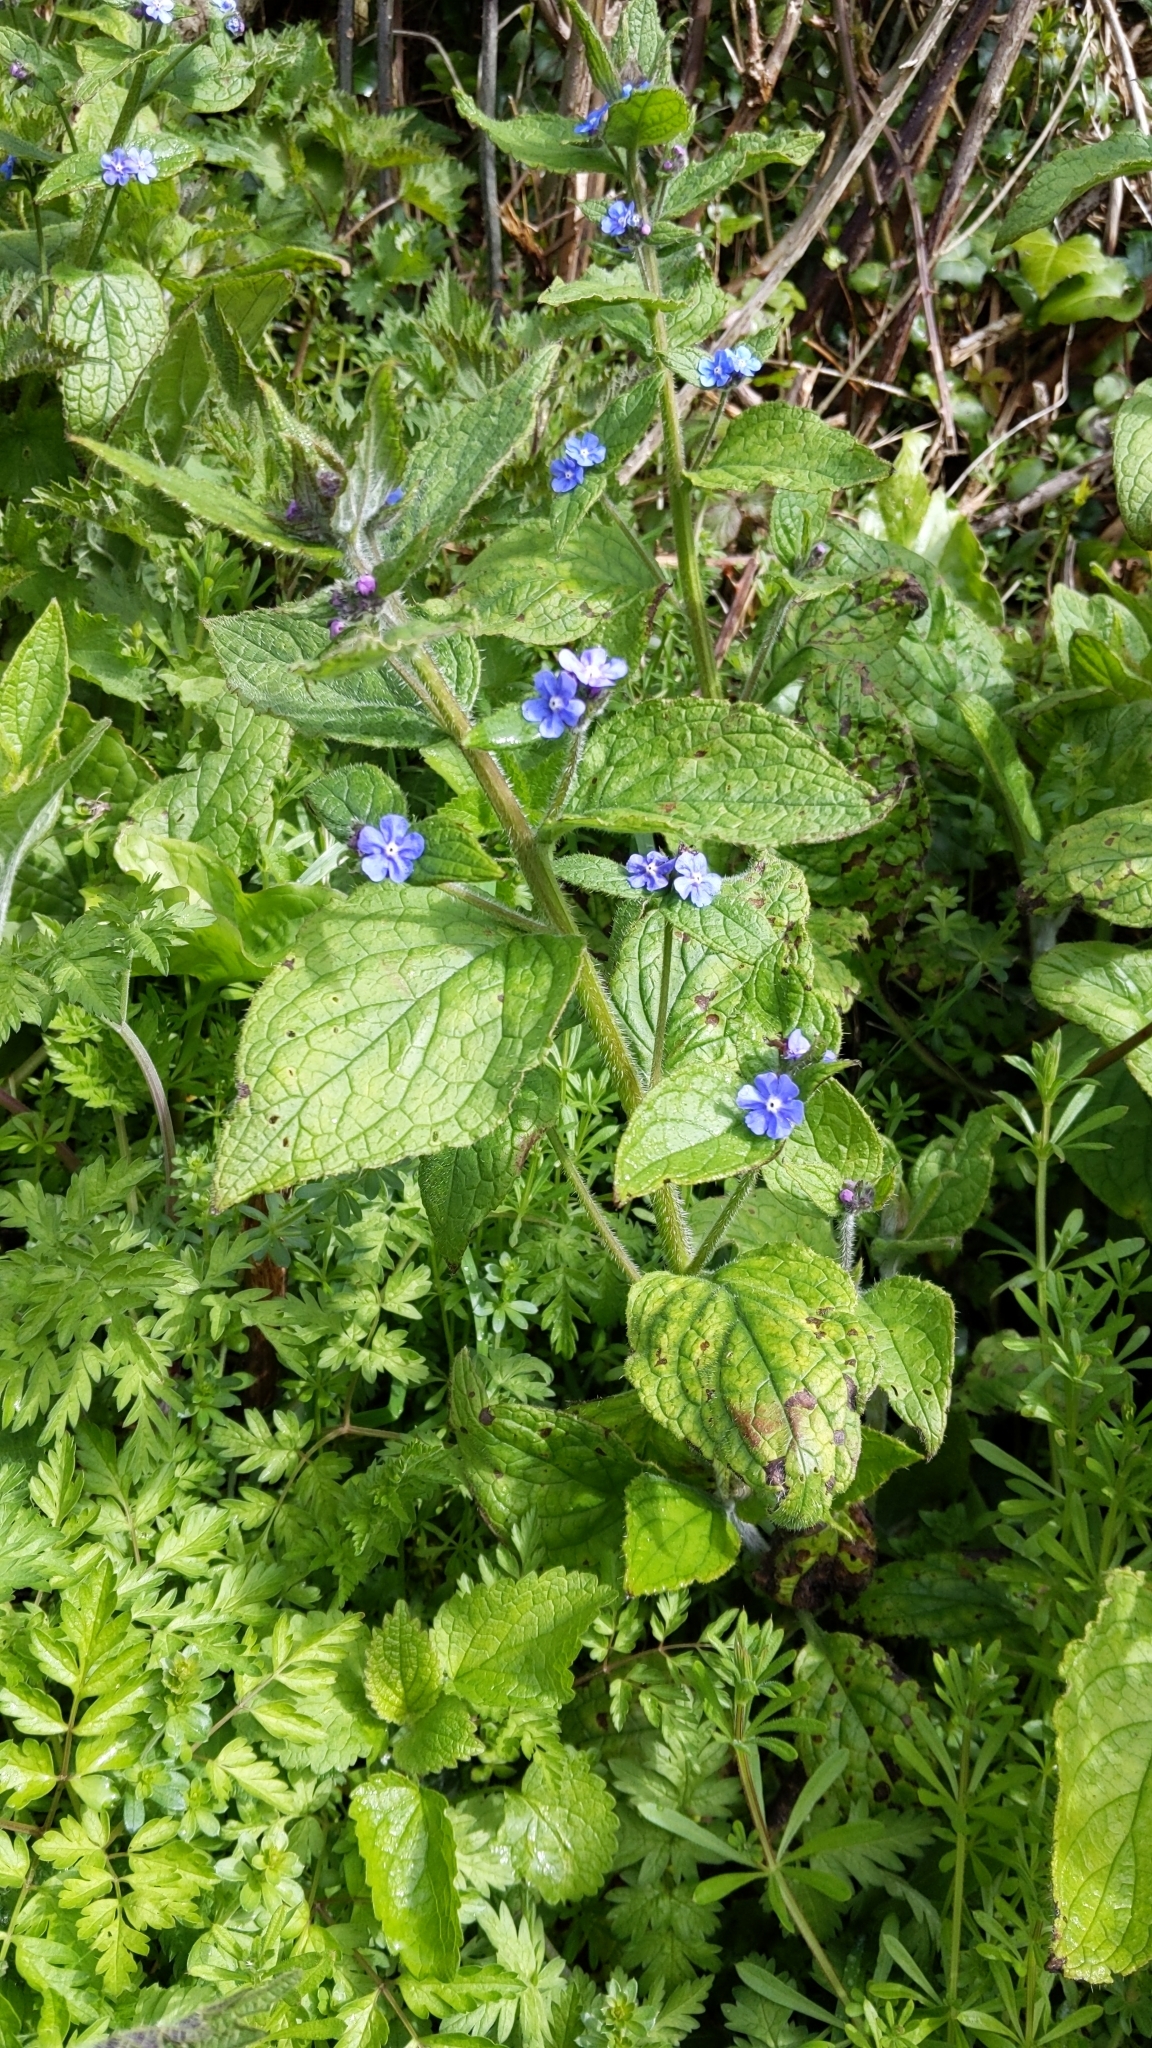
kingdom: Plantae
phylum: Tracheophyta
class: Magnoliopsida
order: Boraginales
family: Boraginaceae
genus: Pentaglottis
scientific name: Pentaglottis sempervirens
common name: Green alkanet
